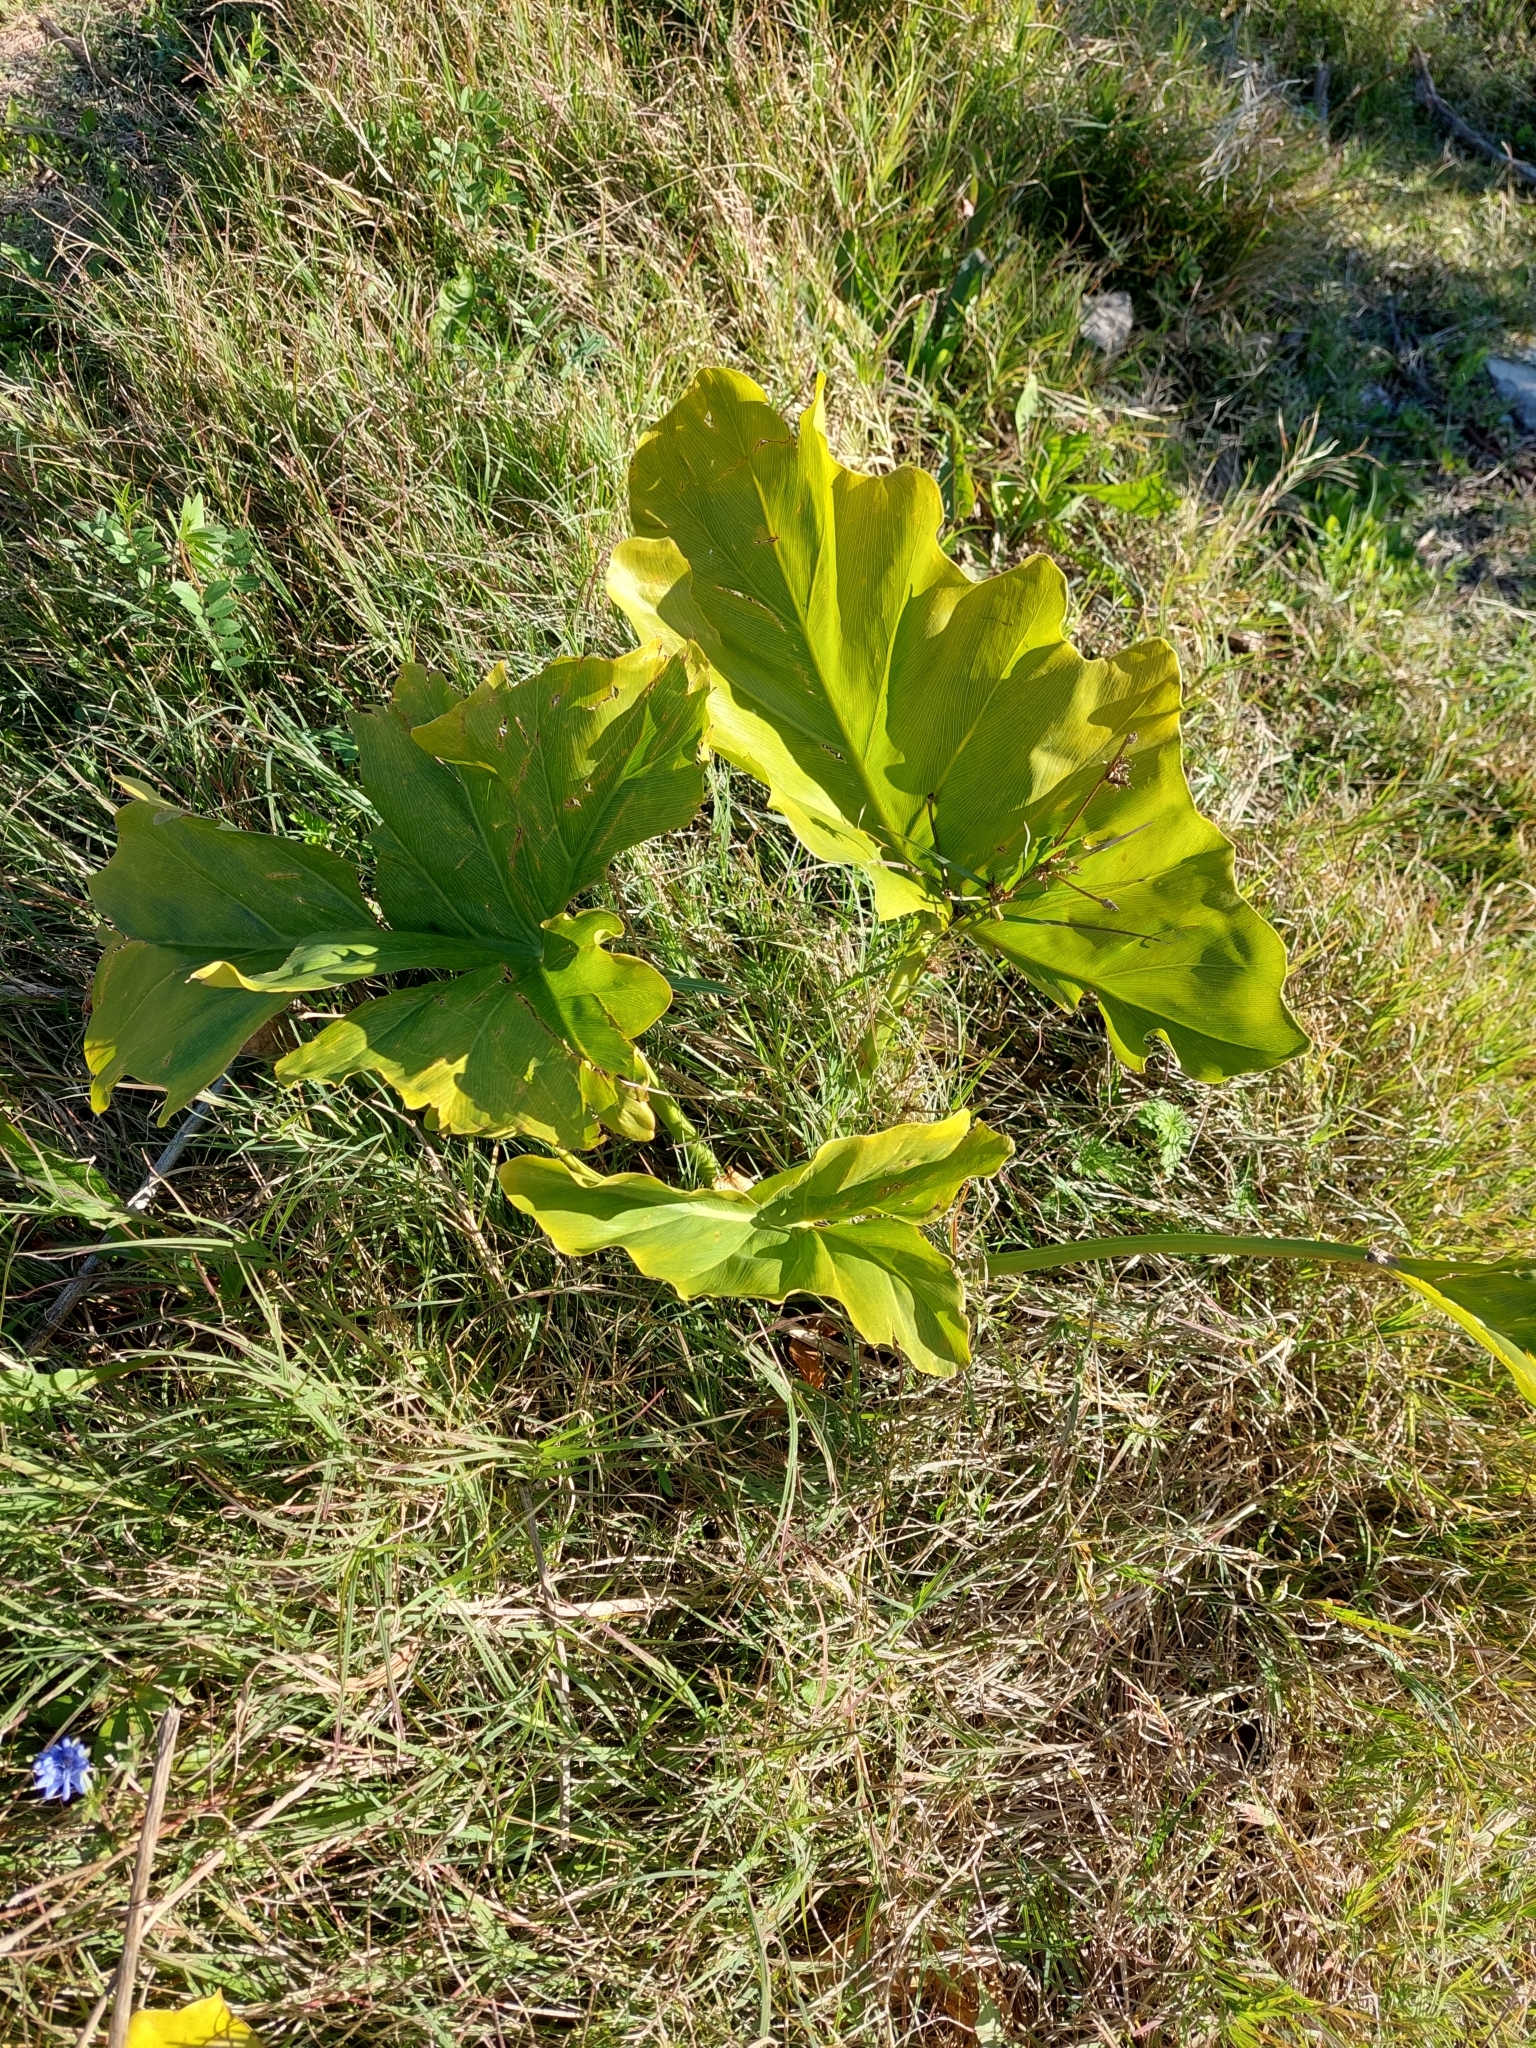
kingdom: Plantae
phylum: Tracheophyta
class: Liliopsida
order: Alismatales
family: Araceae
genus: Thaumatophyllum
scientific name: Thaumatophyllum undulatum
